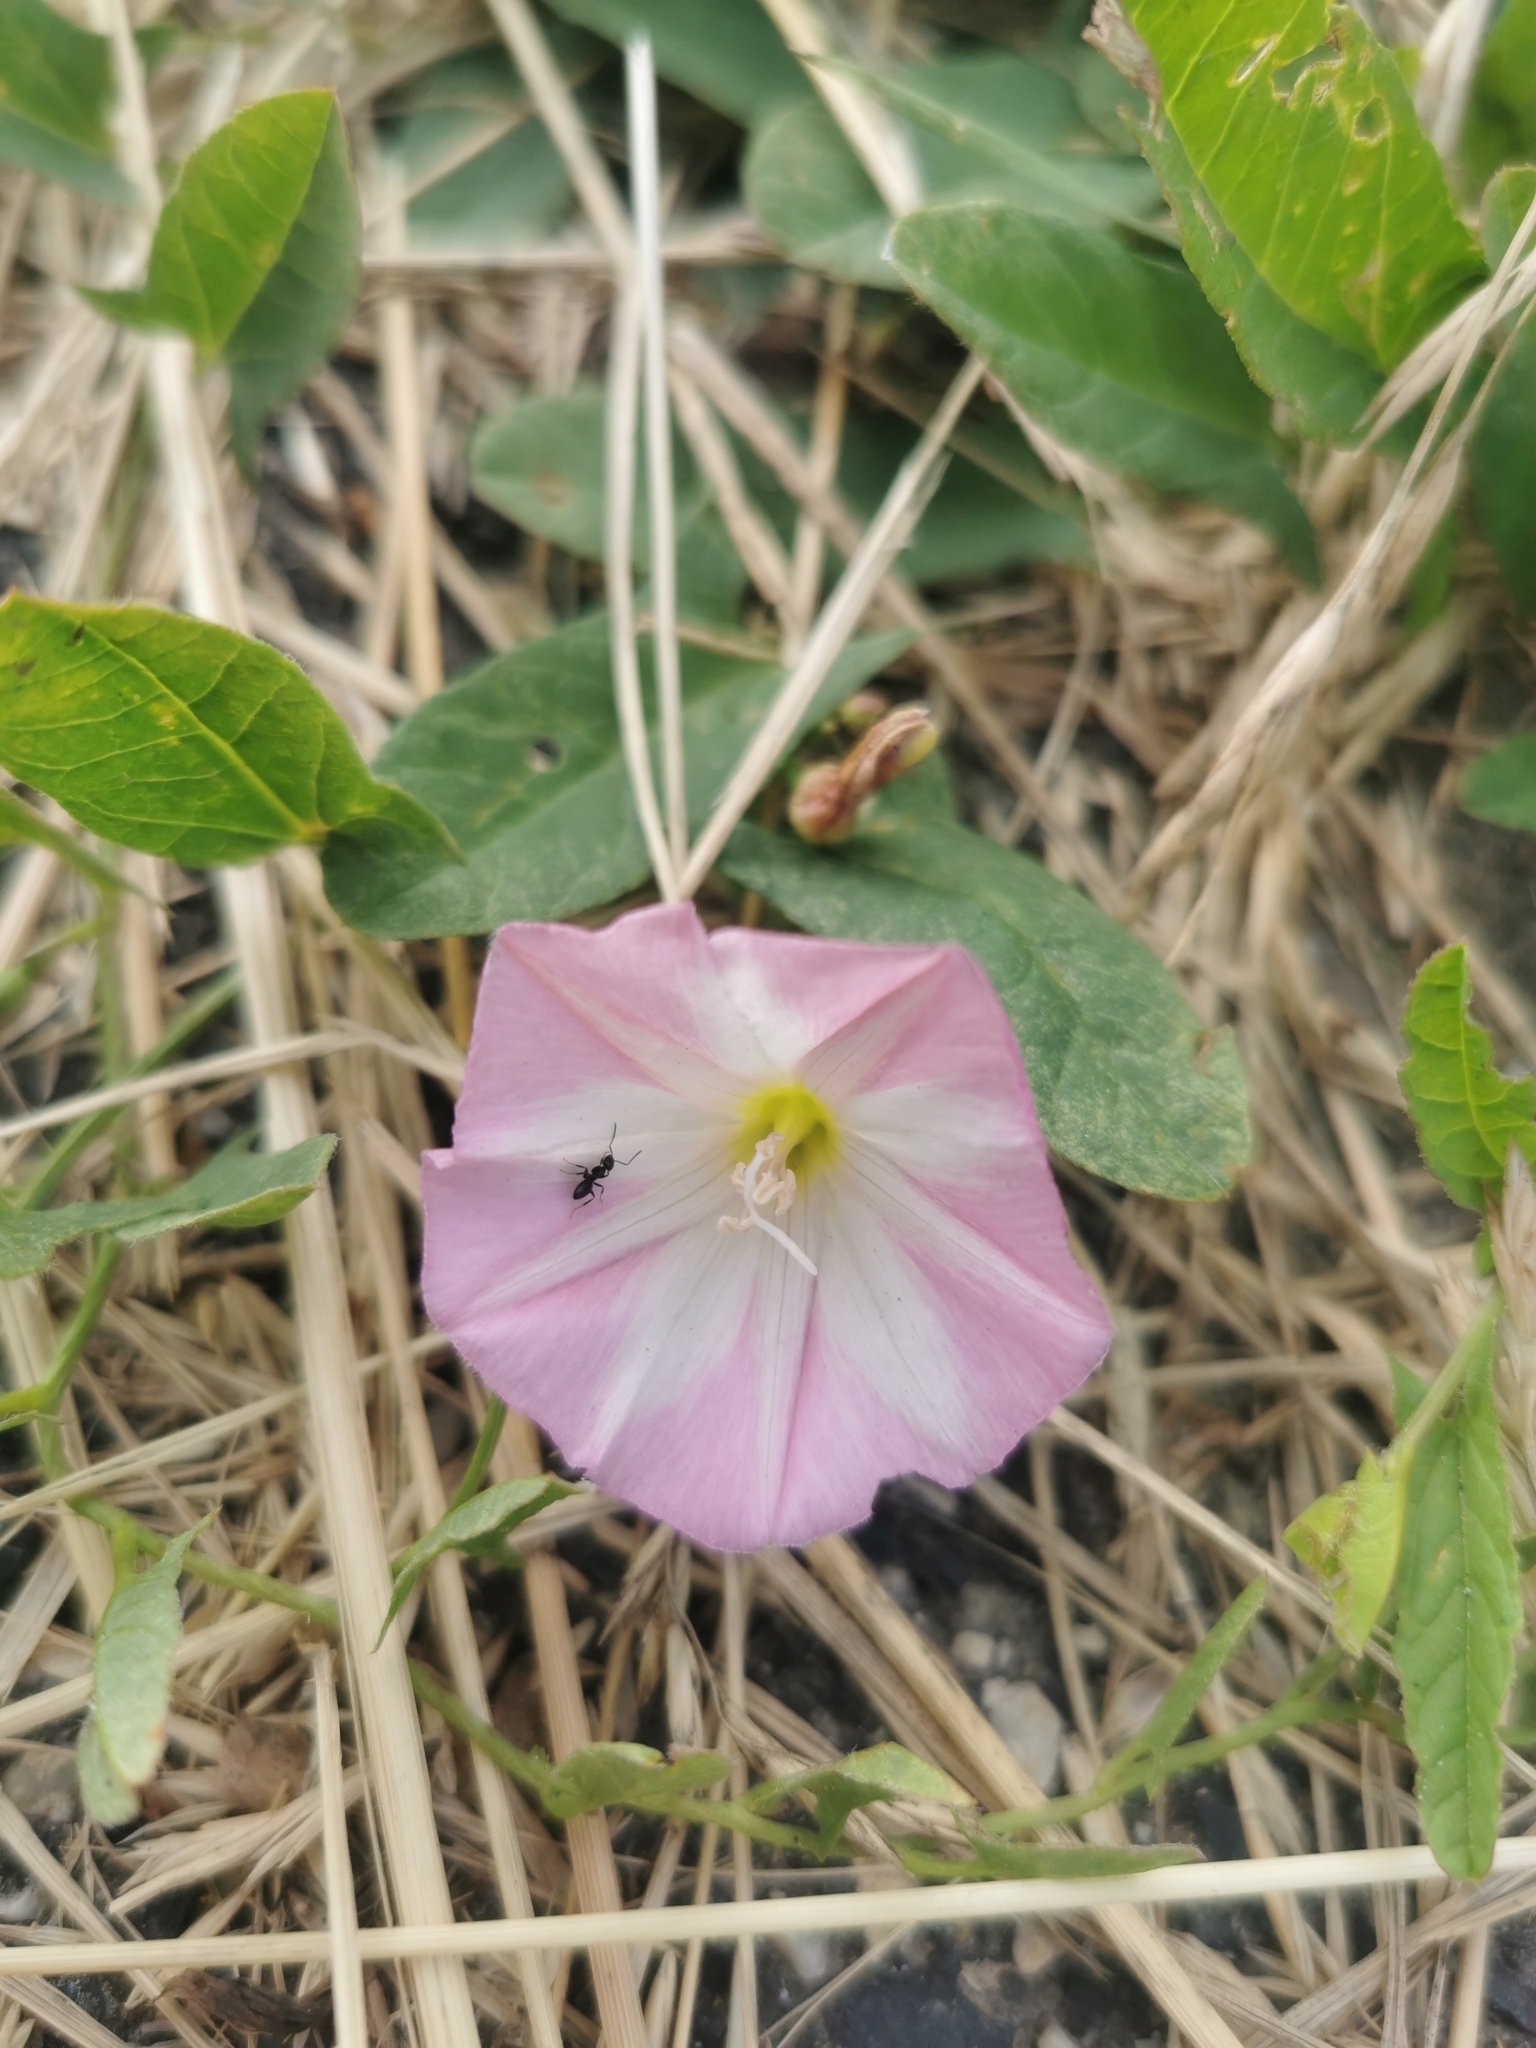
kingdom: Plantae
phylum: Tracheophyta
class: Magnoliopsida
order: Solanales
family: Convolvulaceae
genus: Convolvulus
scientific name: Convolvulus arvensis
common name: Field bindweed
